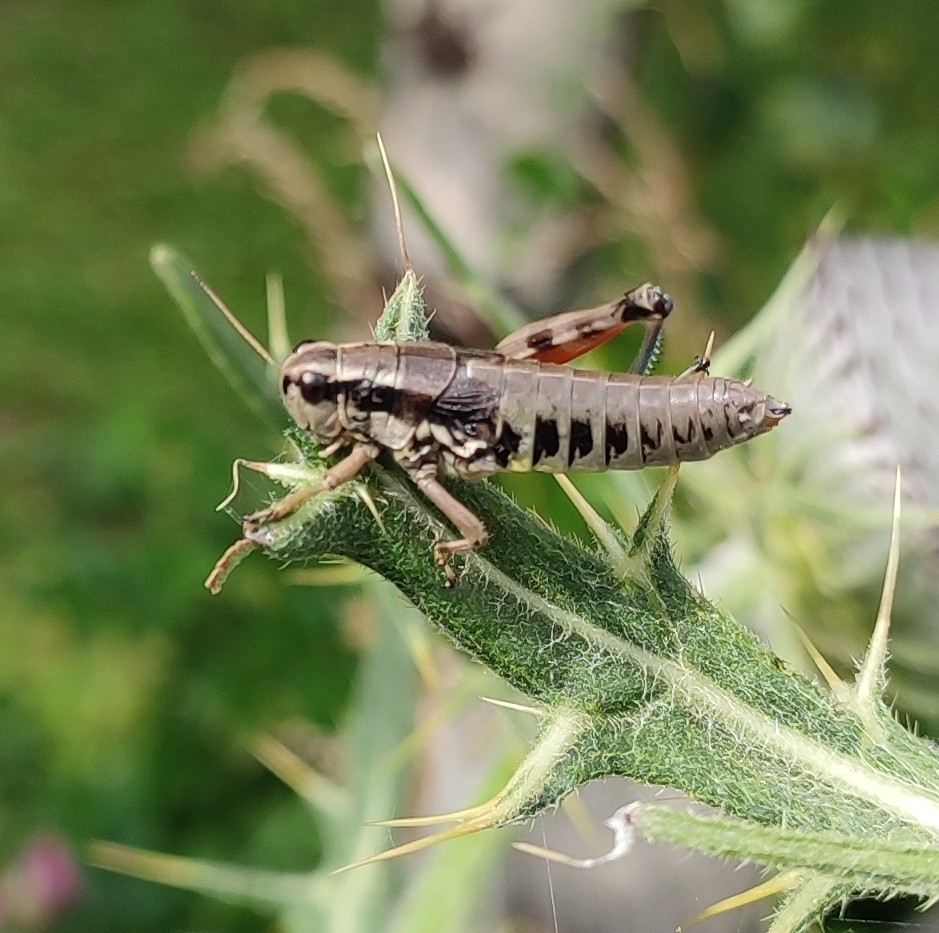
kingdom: Animalia
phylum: Arthropoda
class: Insecta
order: Orthoptera
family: Acrididae
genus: Podisma
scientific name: Podisma pedestris
